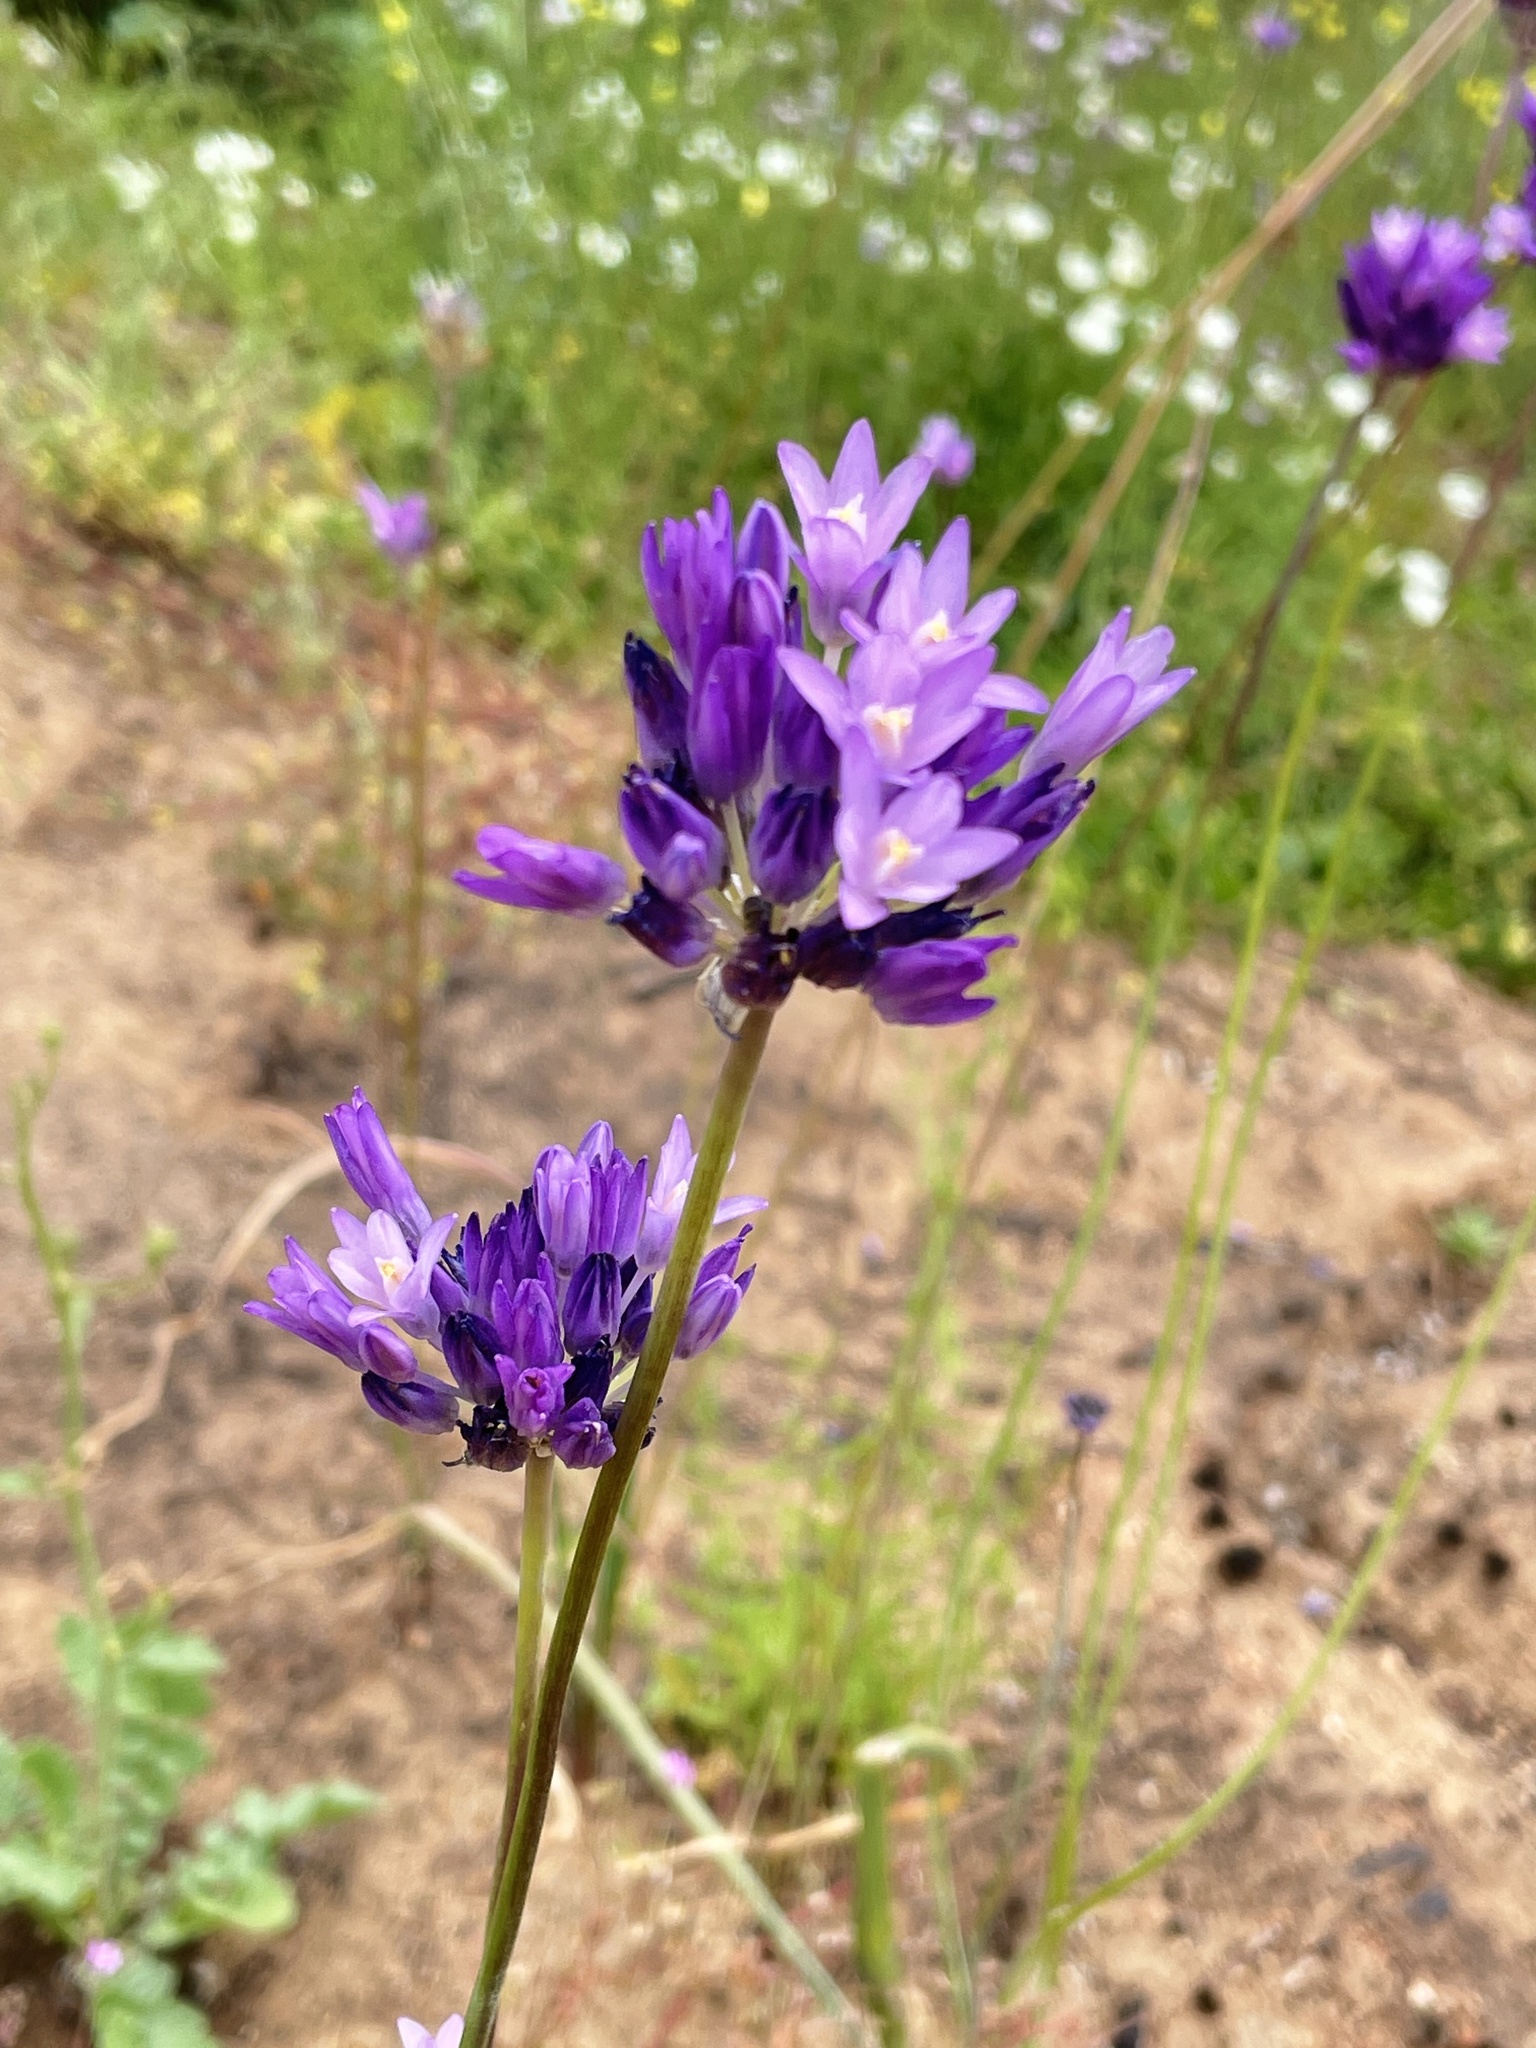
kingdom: Plantae
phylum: Tracheophyta
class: Liliopsida
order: Asparagales
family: Asparagaceae
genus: Dipterostemon
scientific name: Dipterostemon capitatus
